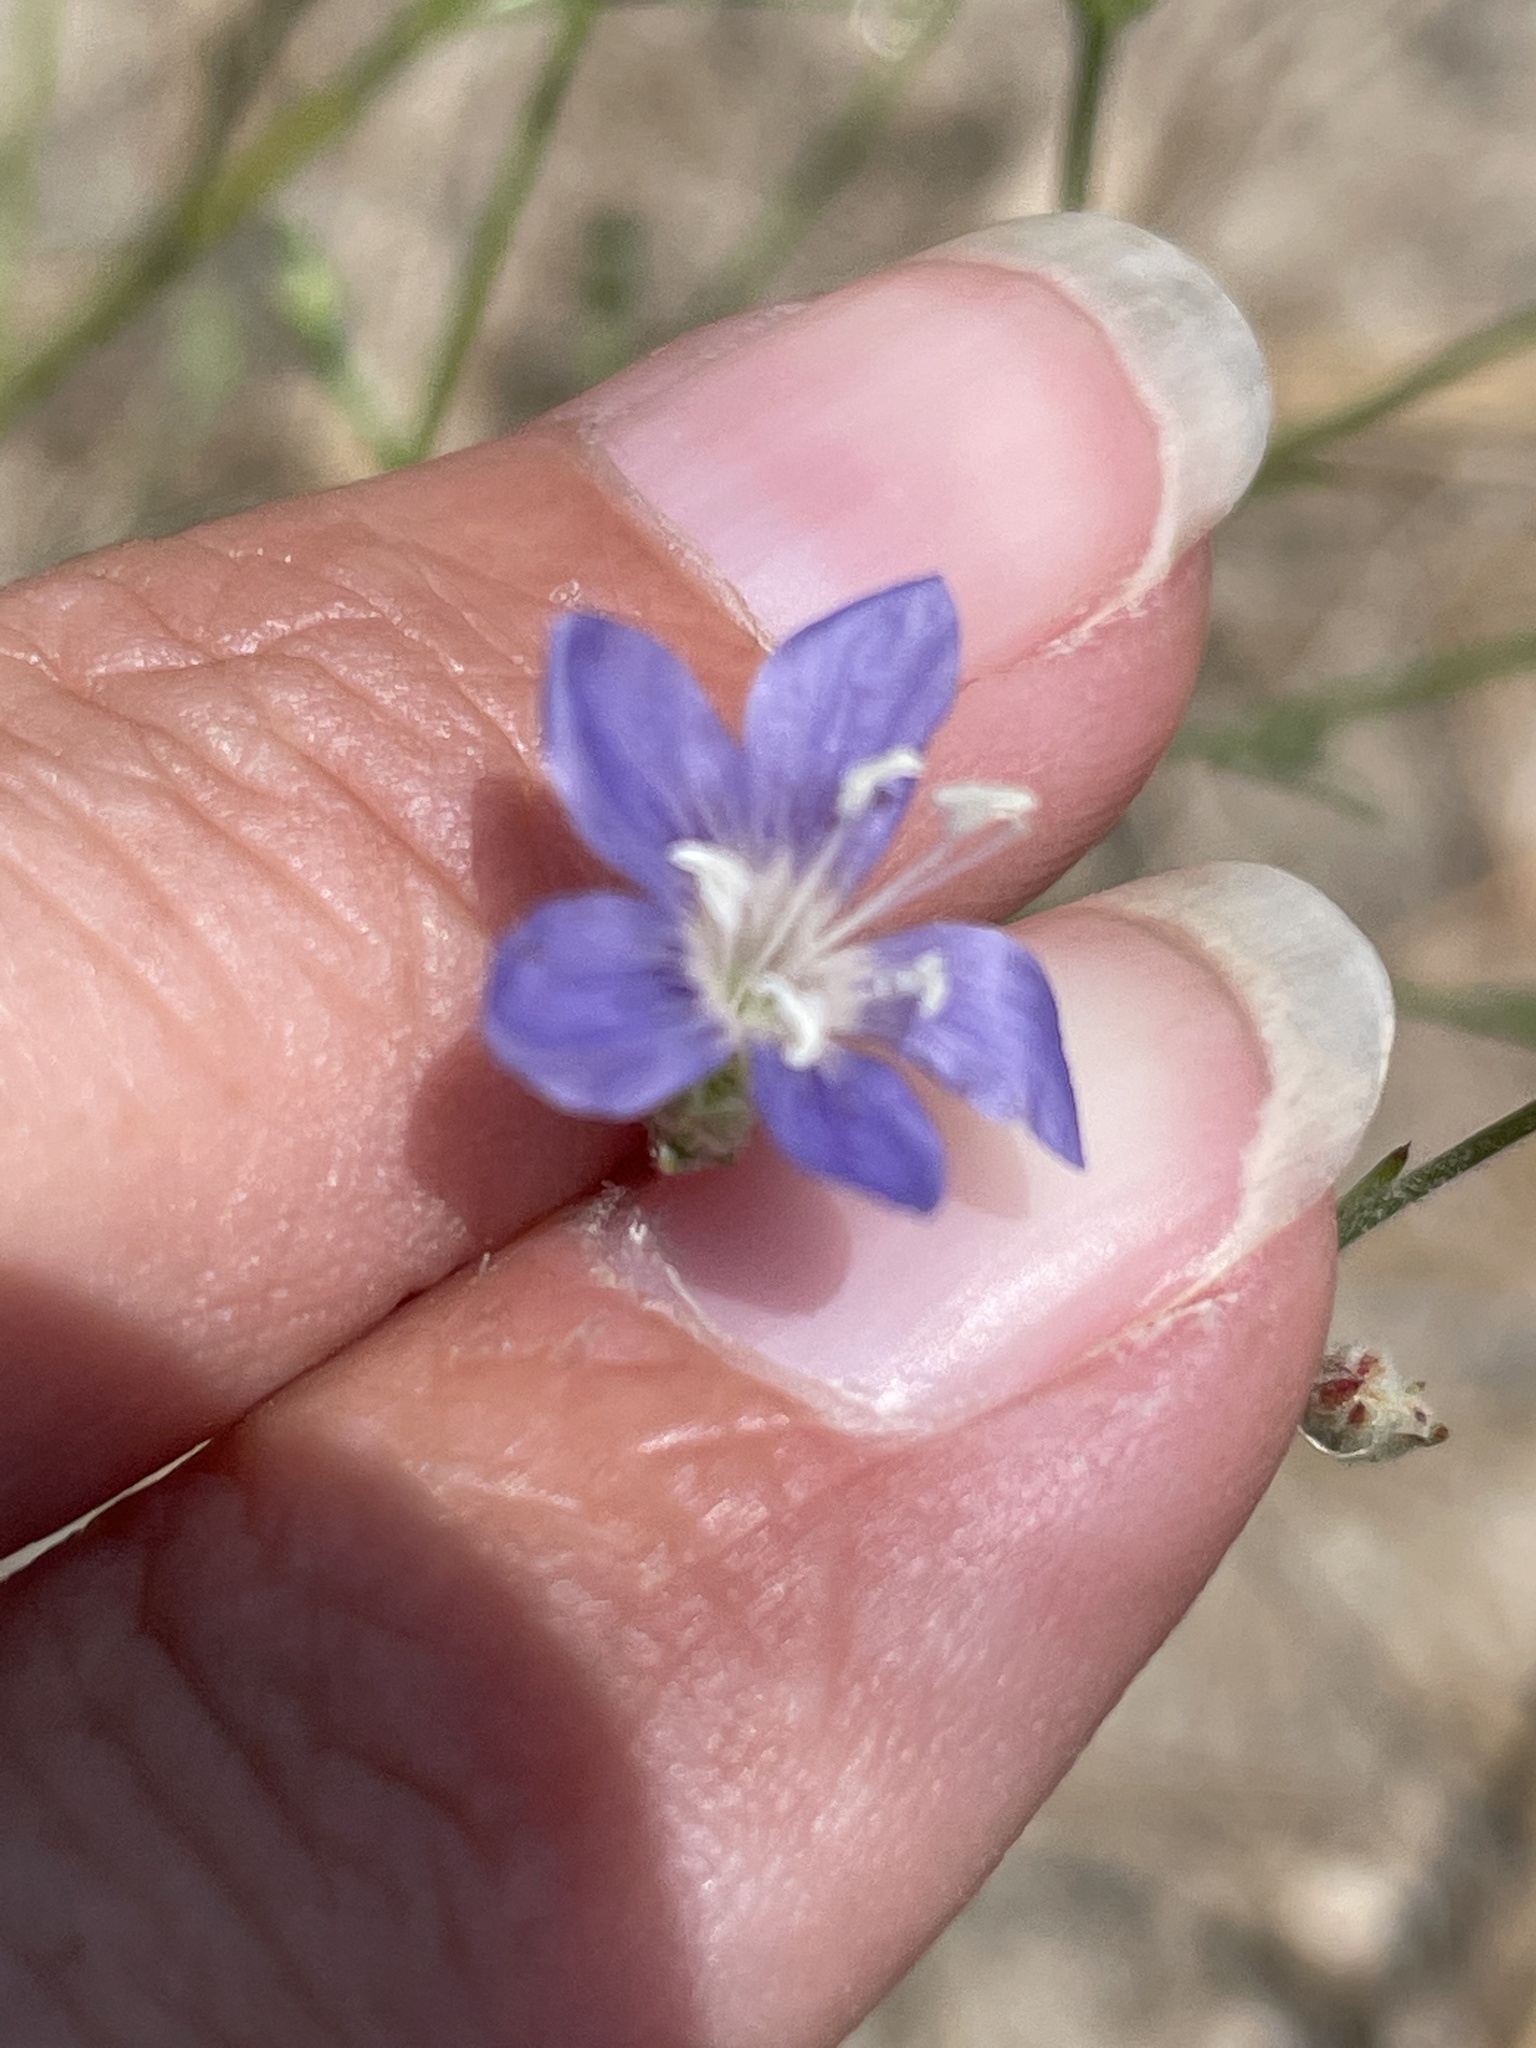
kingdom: Plantae
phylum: Tracheophyta
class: Magnoliopsida
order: Ericales
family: Polemoniaceae
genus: Eriastrum
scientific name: Eriastrum sapphirinum
